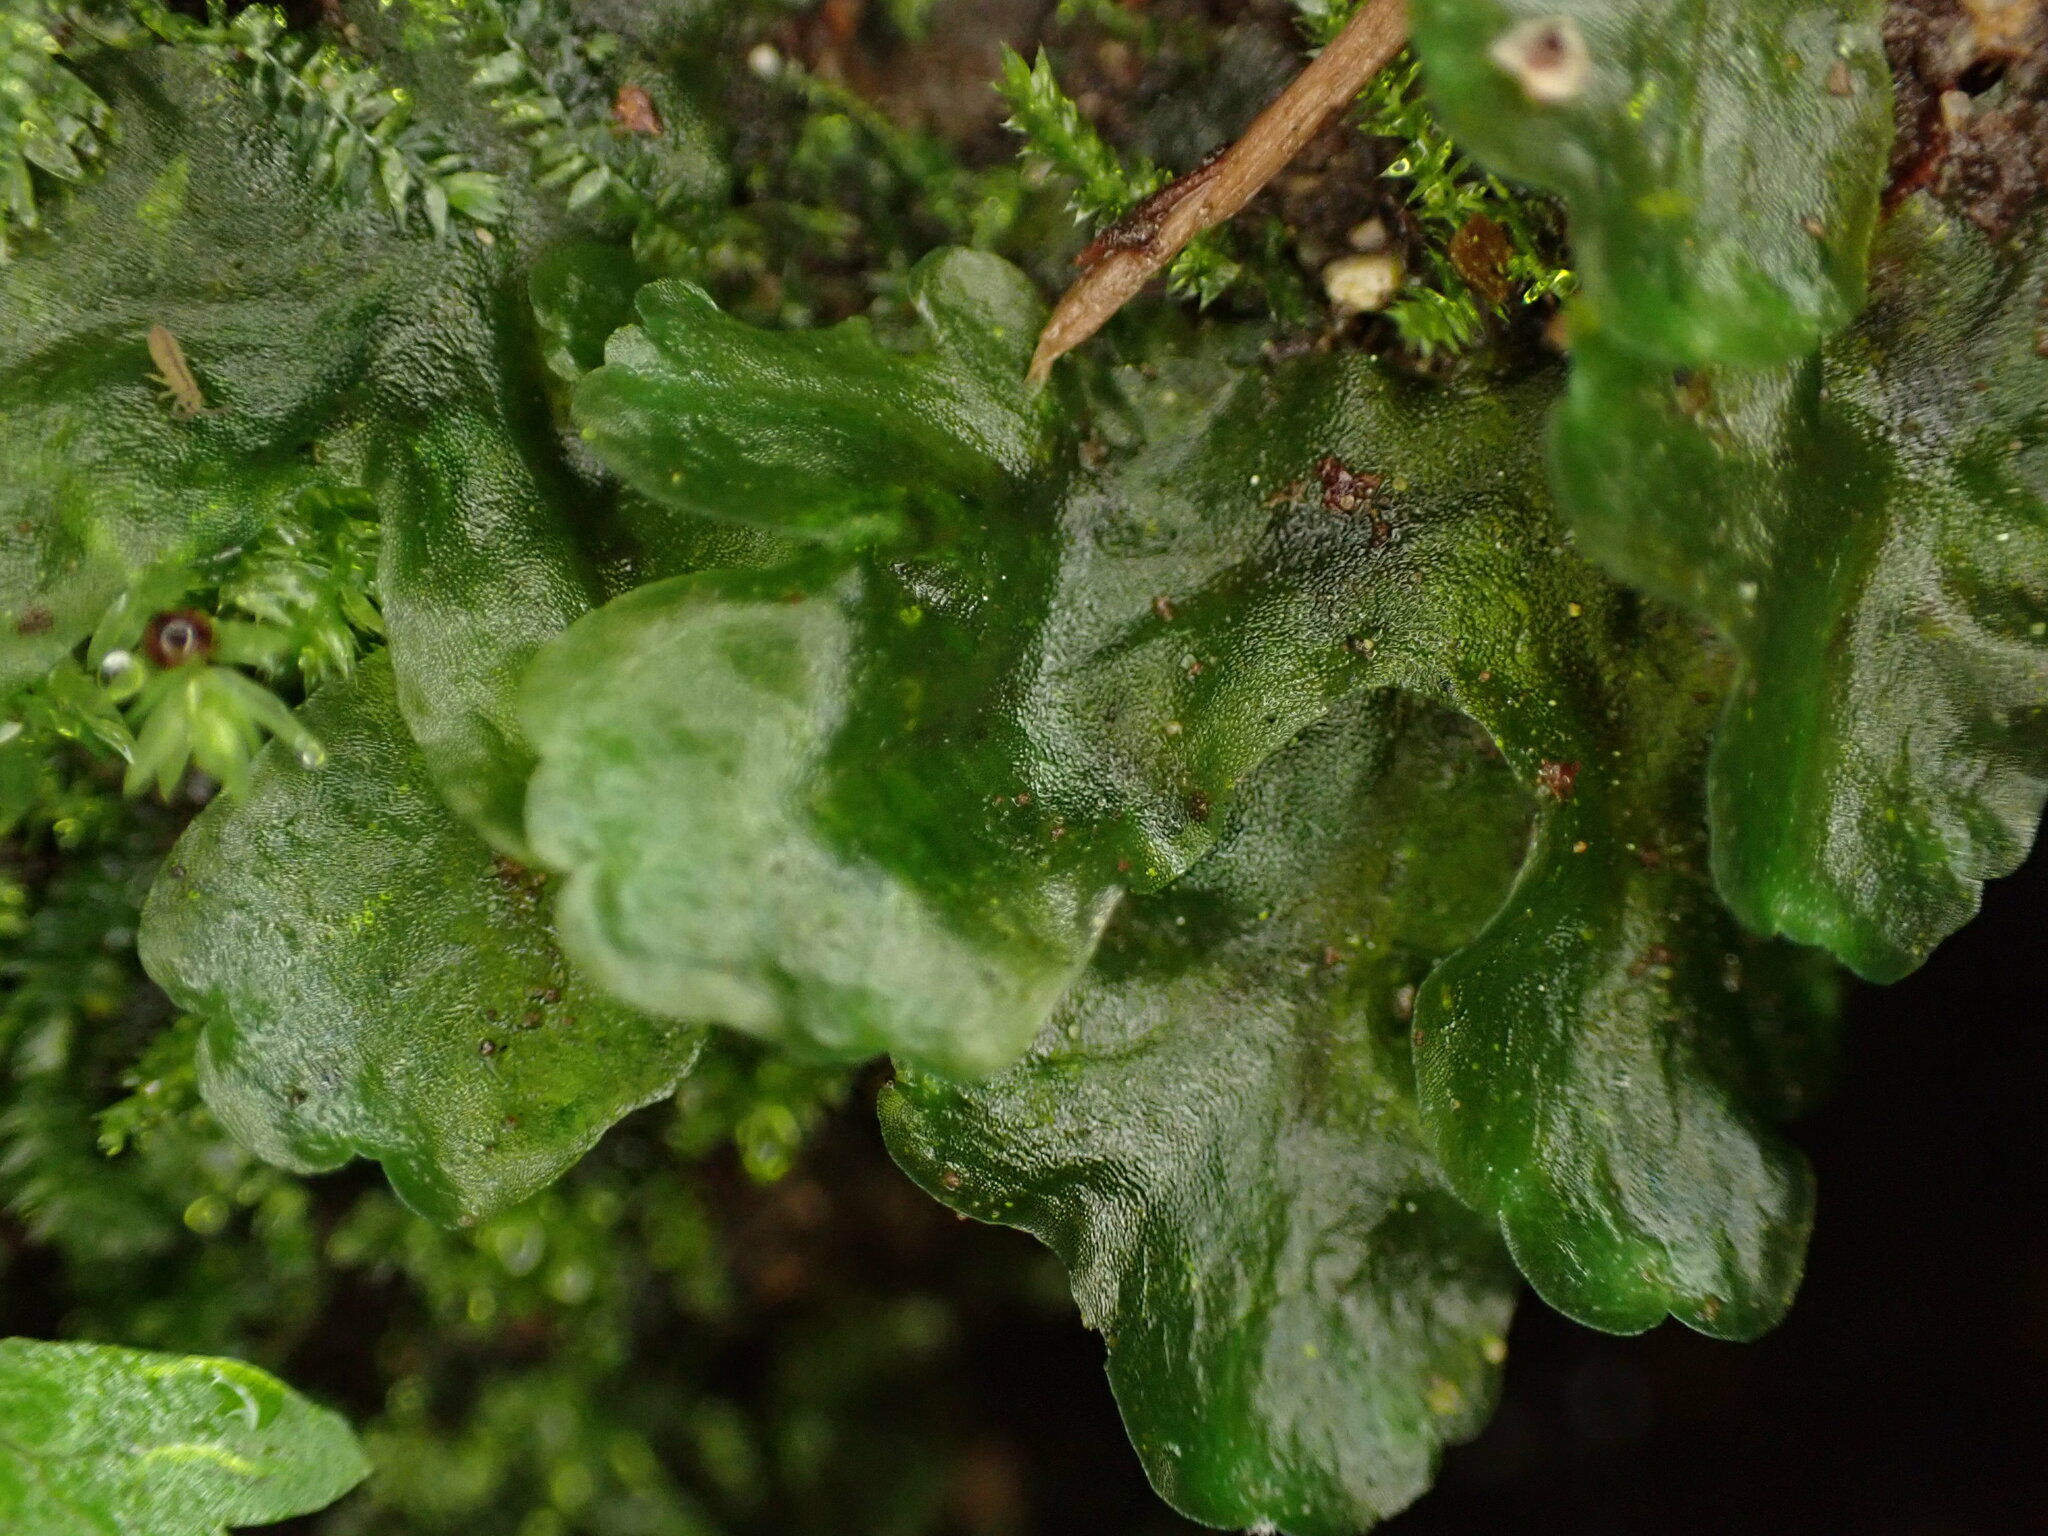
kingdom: Plantae
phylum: Marchantiophyta
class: Jungermanniopsida
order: Pelliales
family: Pelliaceae
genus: Pellia
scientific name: Pellia neesiana
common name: Nees  pellia
